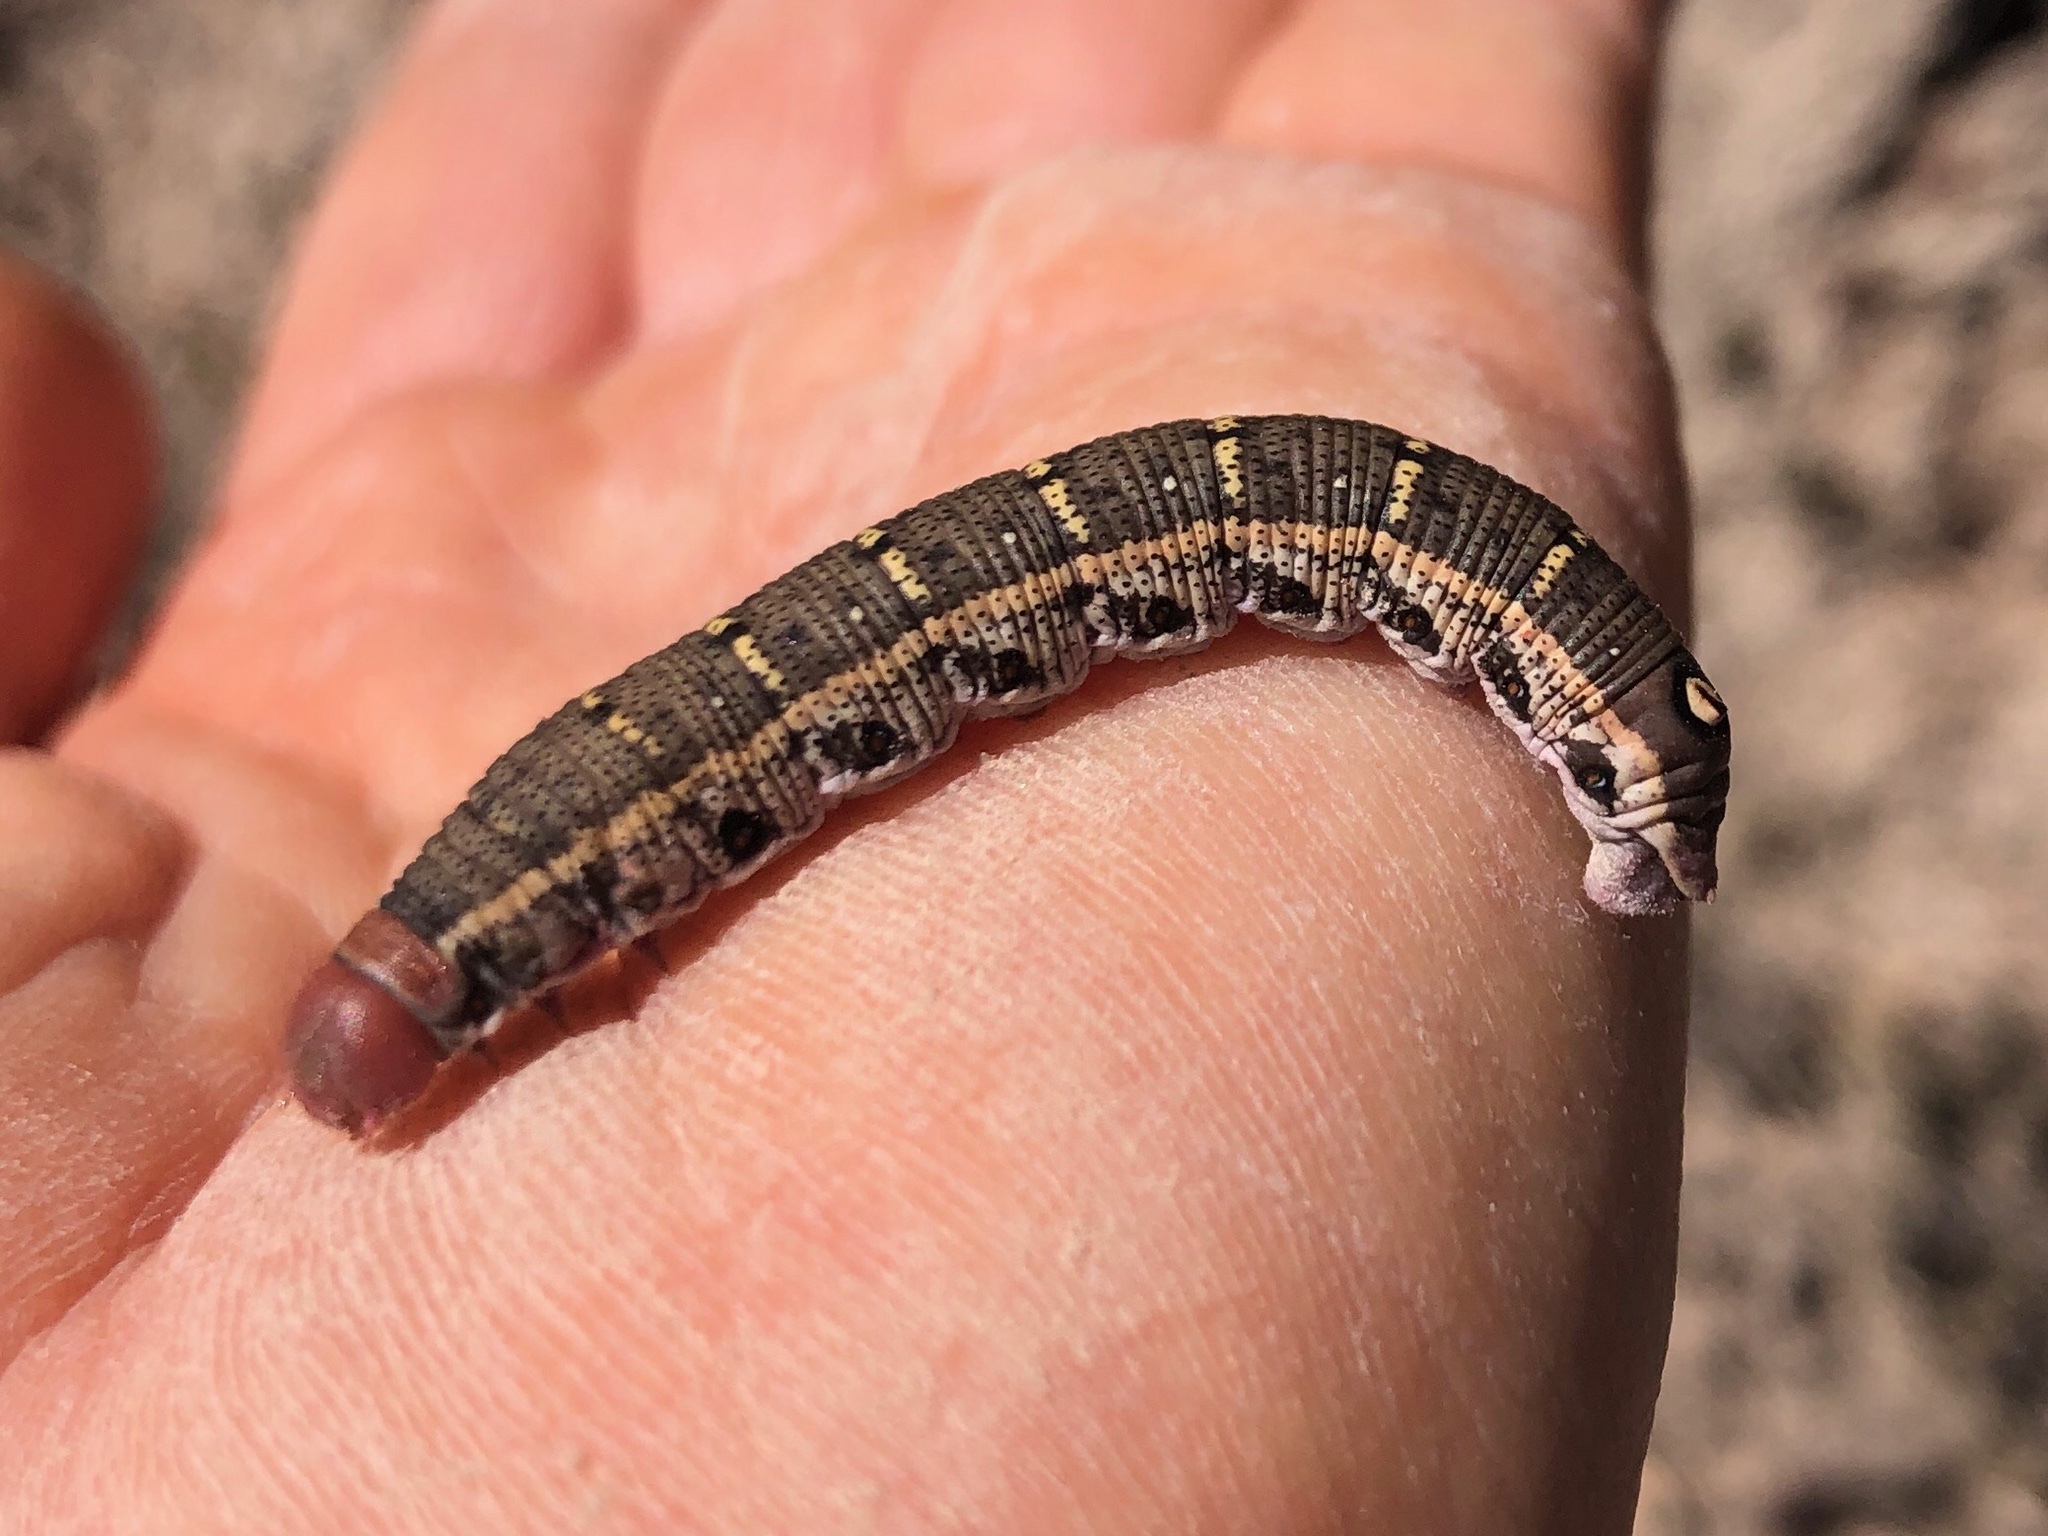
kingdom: Animalia
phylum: Arthropoda
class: Insecta
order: Lepidoptera
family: Sphingidae
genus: Proserpinus
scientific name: Proserpinus lucidus
